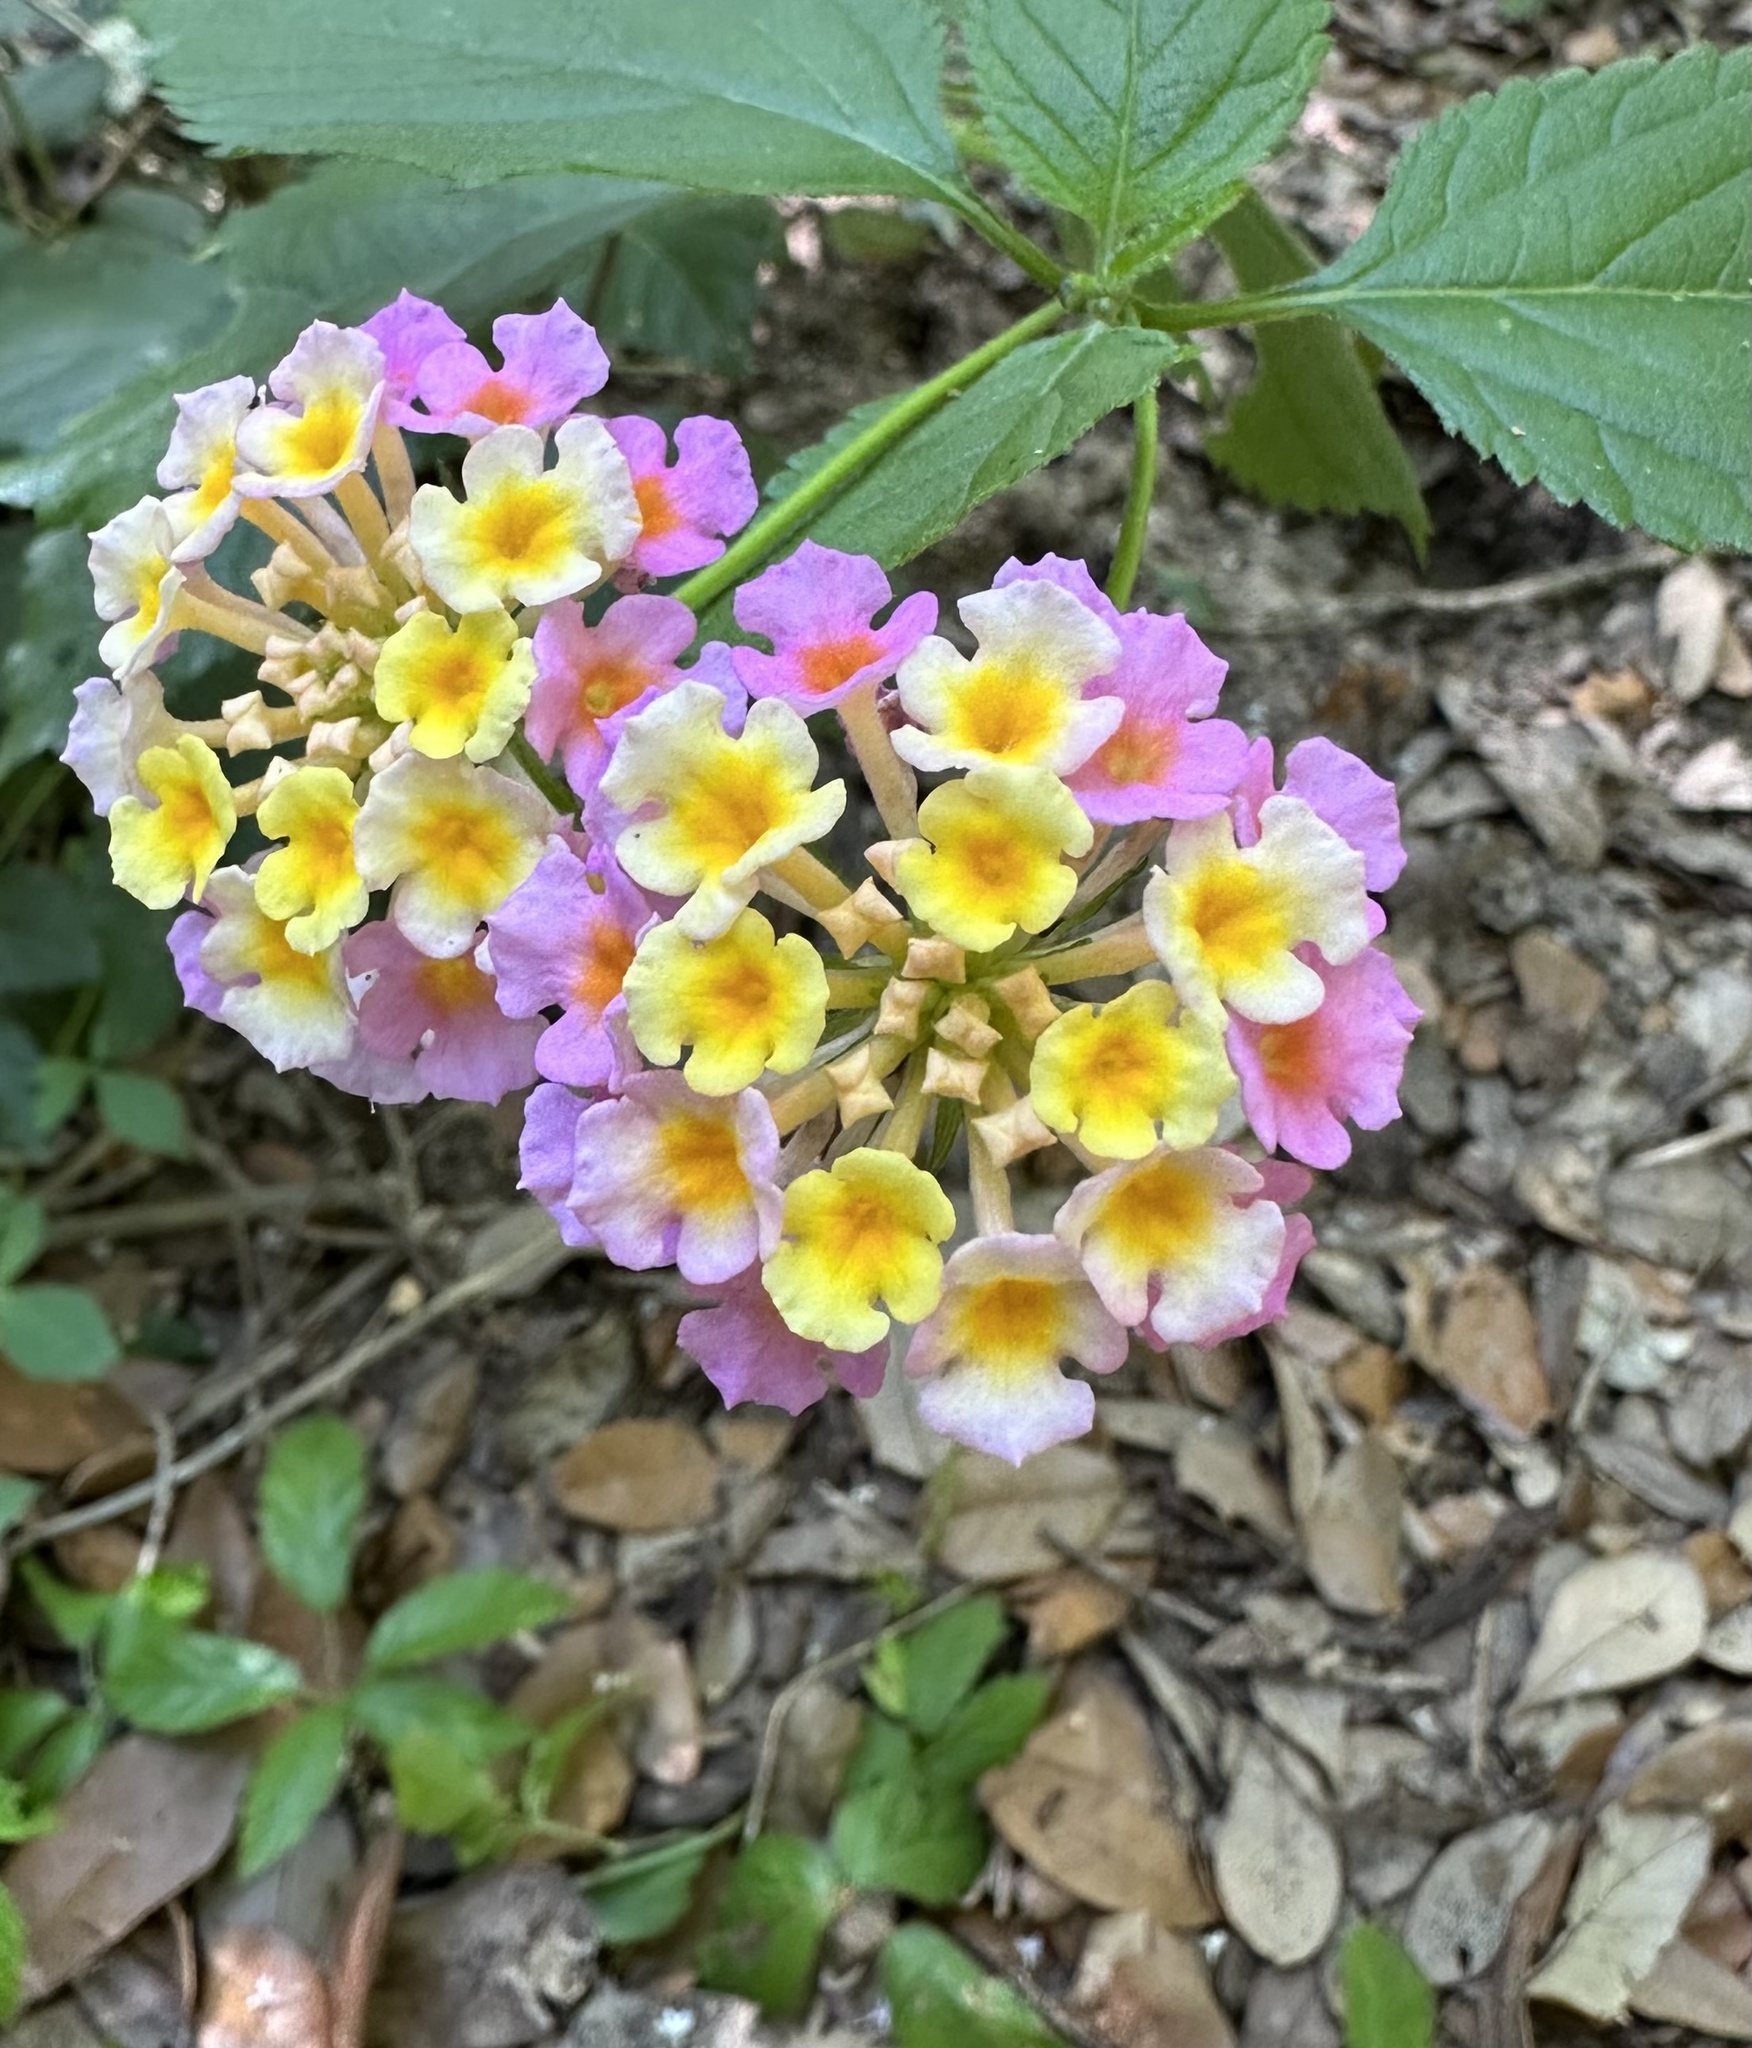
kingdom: Plantae
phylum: Tracheophyta
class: Magnoliopsida
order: Lamiales
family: Verbenaceae
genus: Lantana
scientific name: Lantana strigocamara
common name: Lantana
